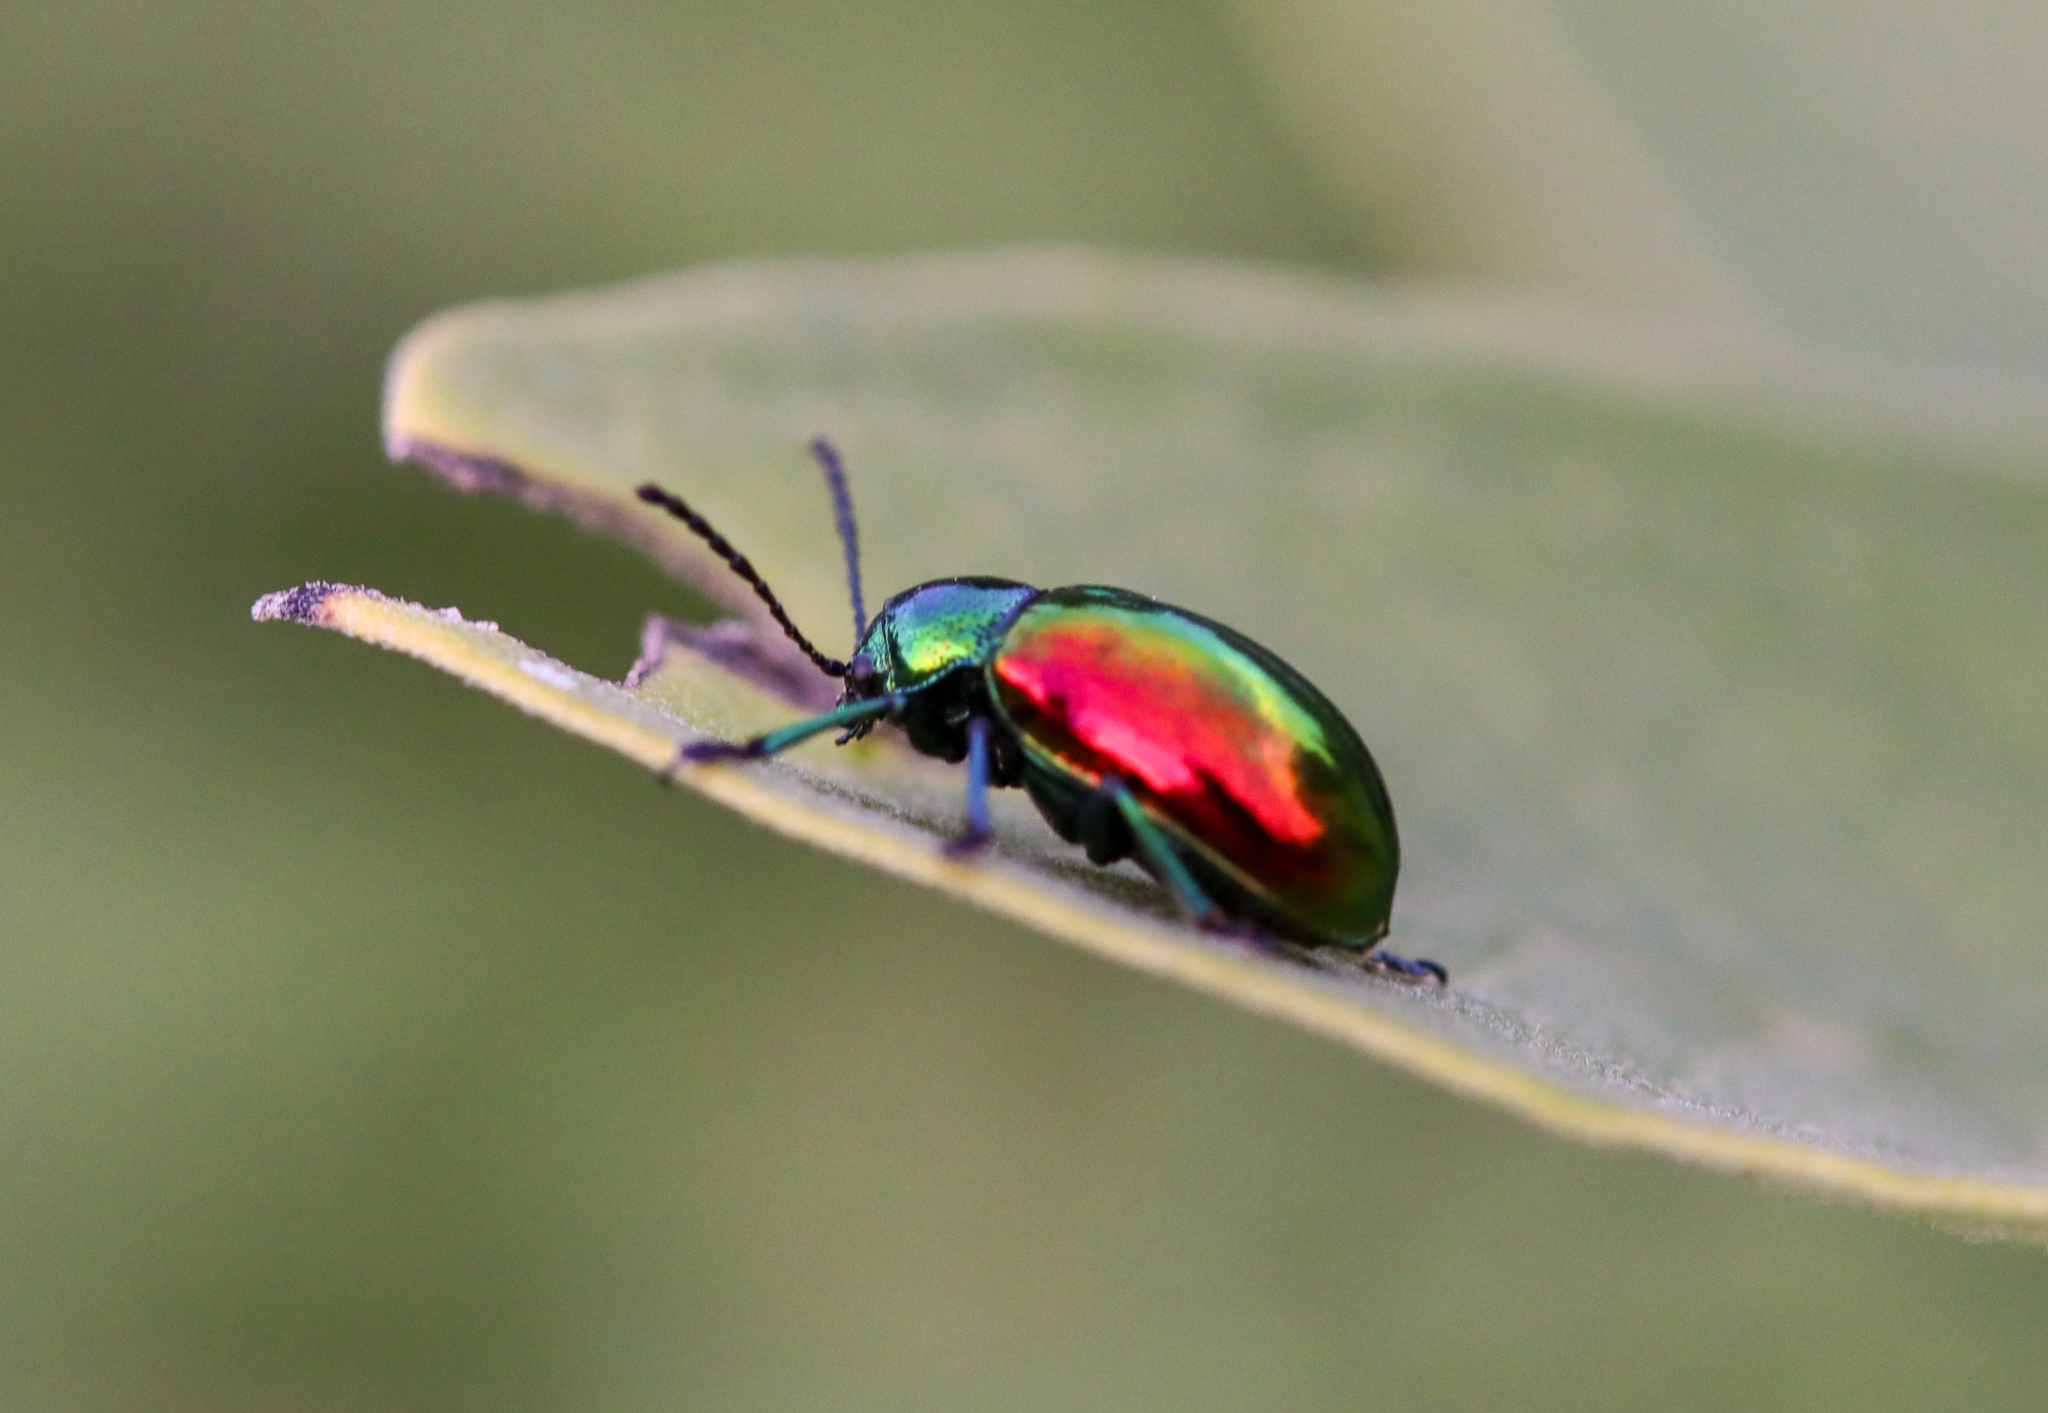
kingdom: Animalia
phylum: Arthropoda
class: Insecta
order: Coleoptera
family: Chrysomelidae
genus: Chrysochus
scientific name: Chrysochus auratus
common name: Dogbane leaf beetle
